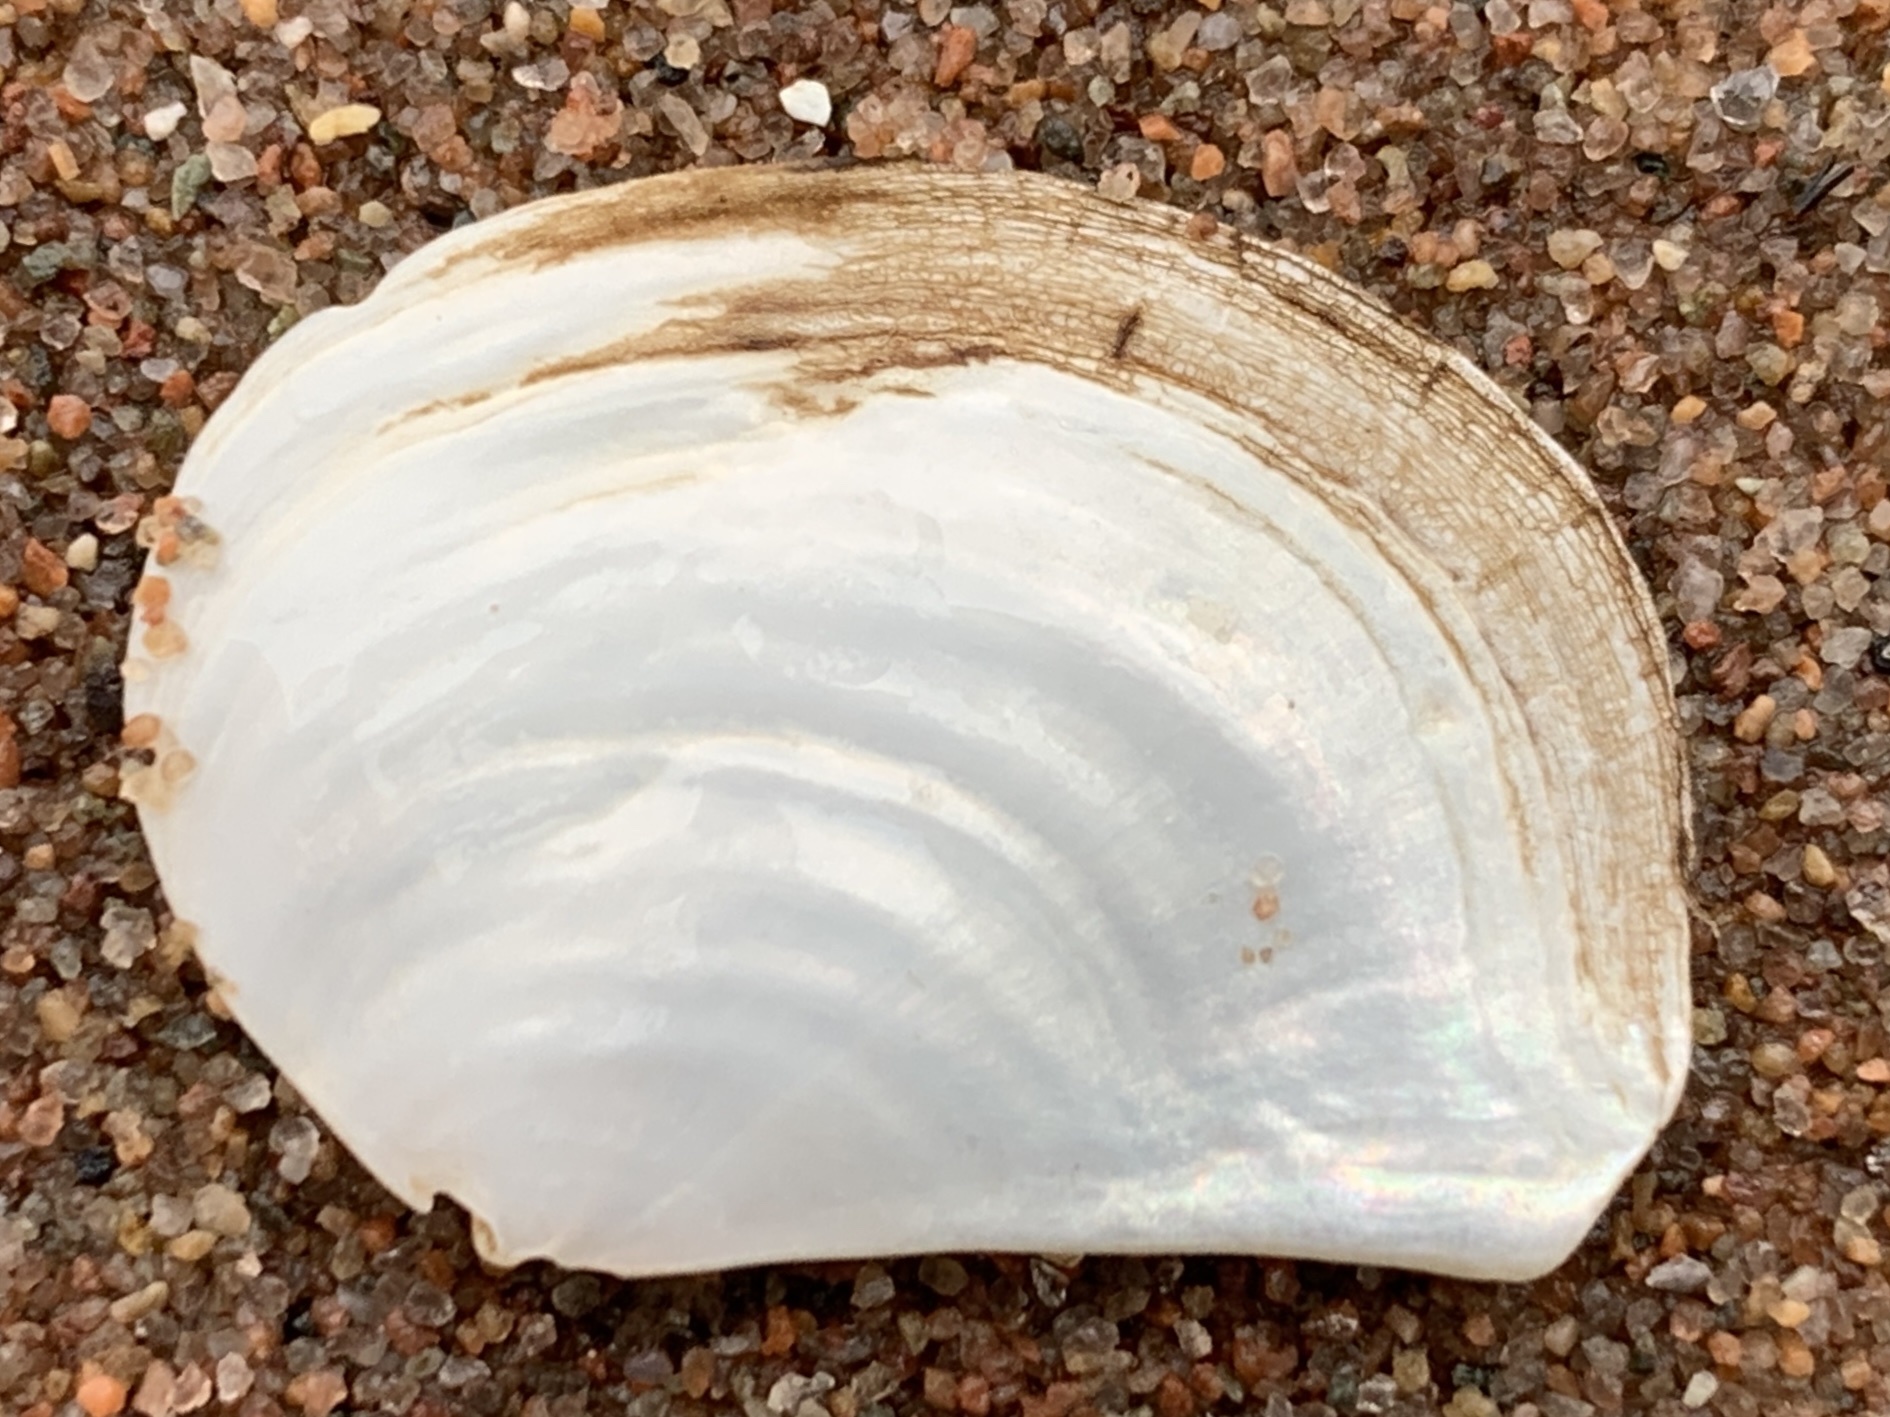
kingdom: Animalia
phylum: Mollusca
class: Bivalvia
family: Pandoridae
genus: Pandora
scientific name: Pandora gouldiana
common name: Rounded pandora
